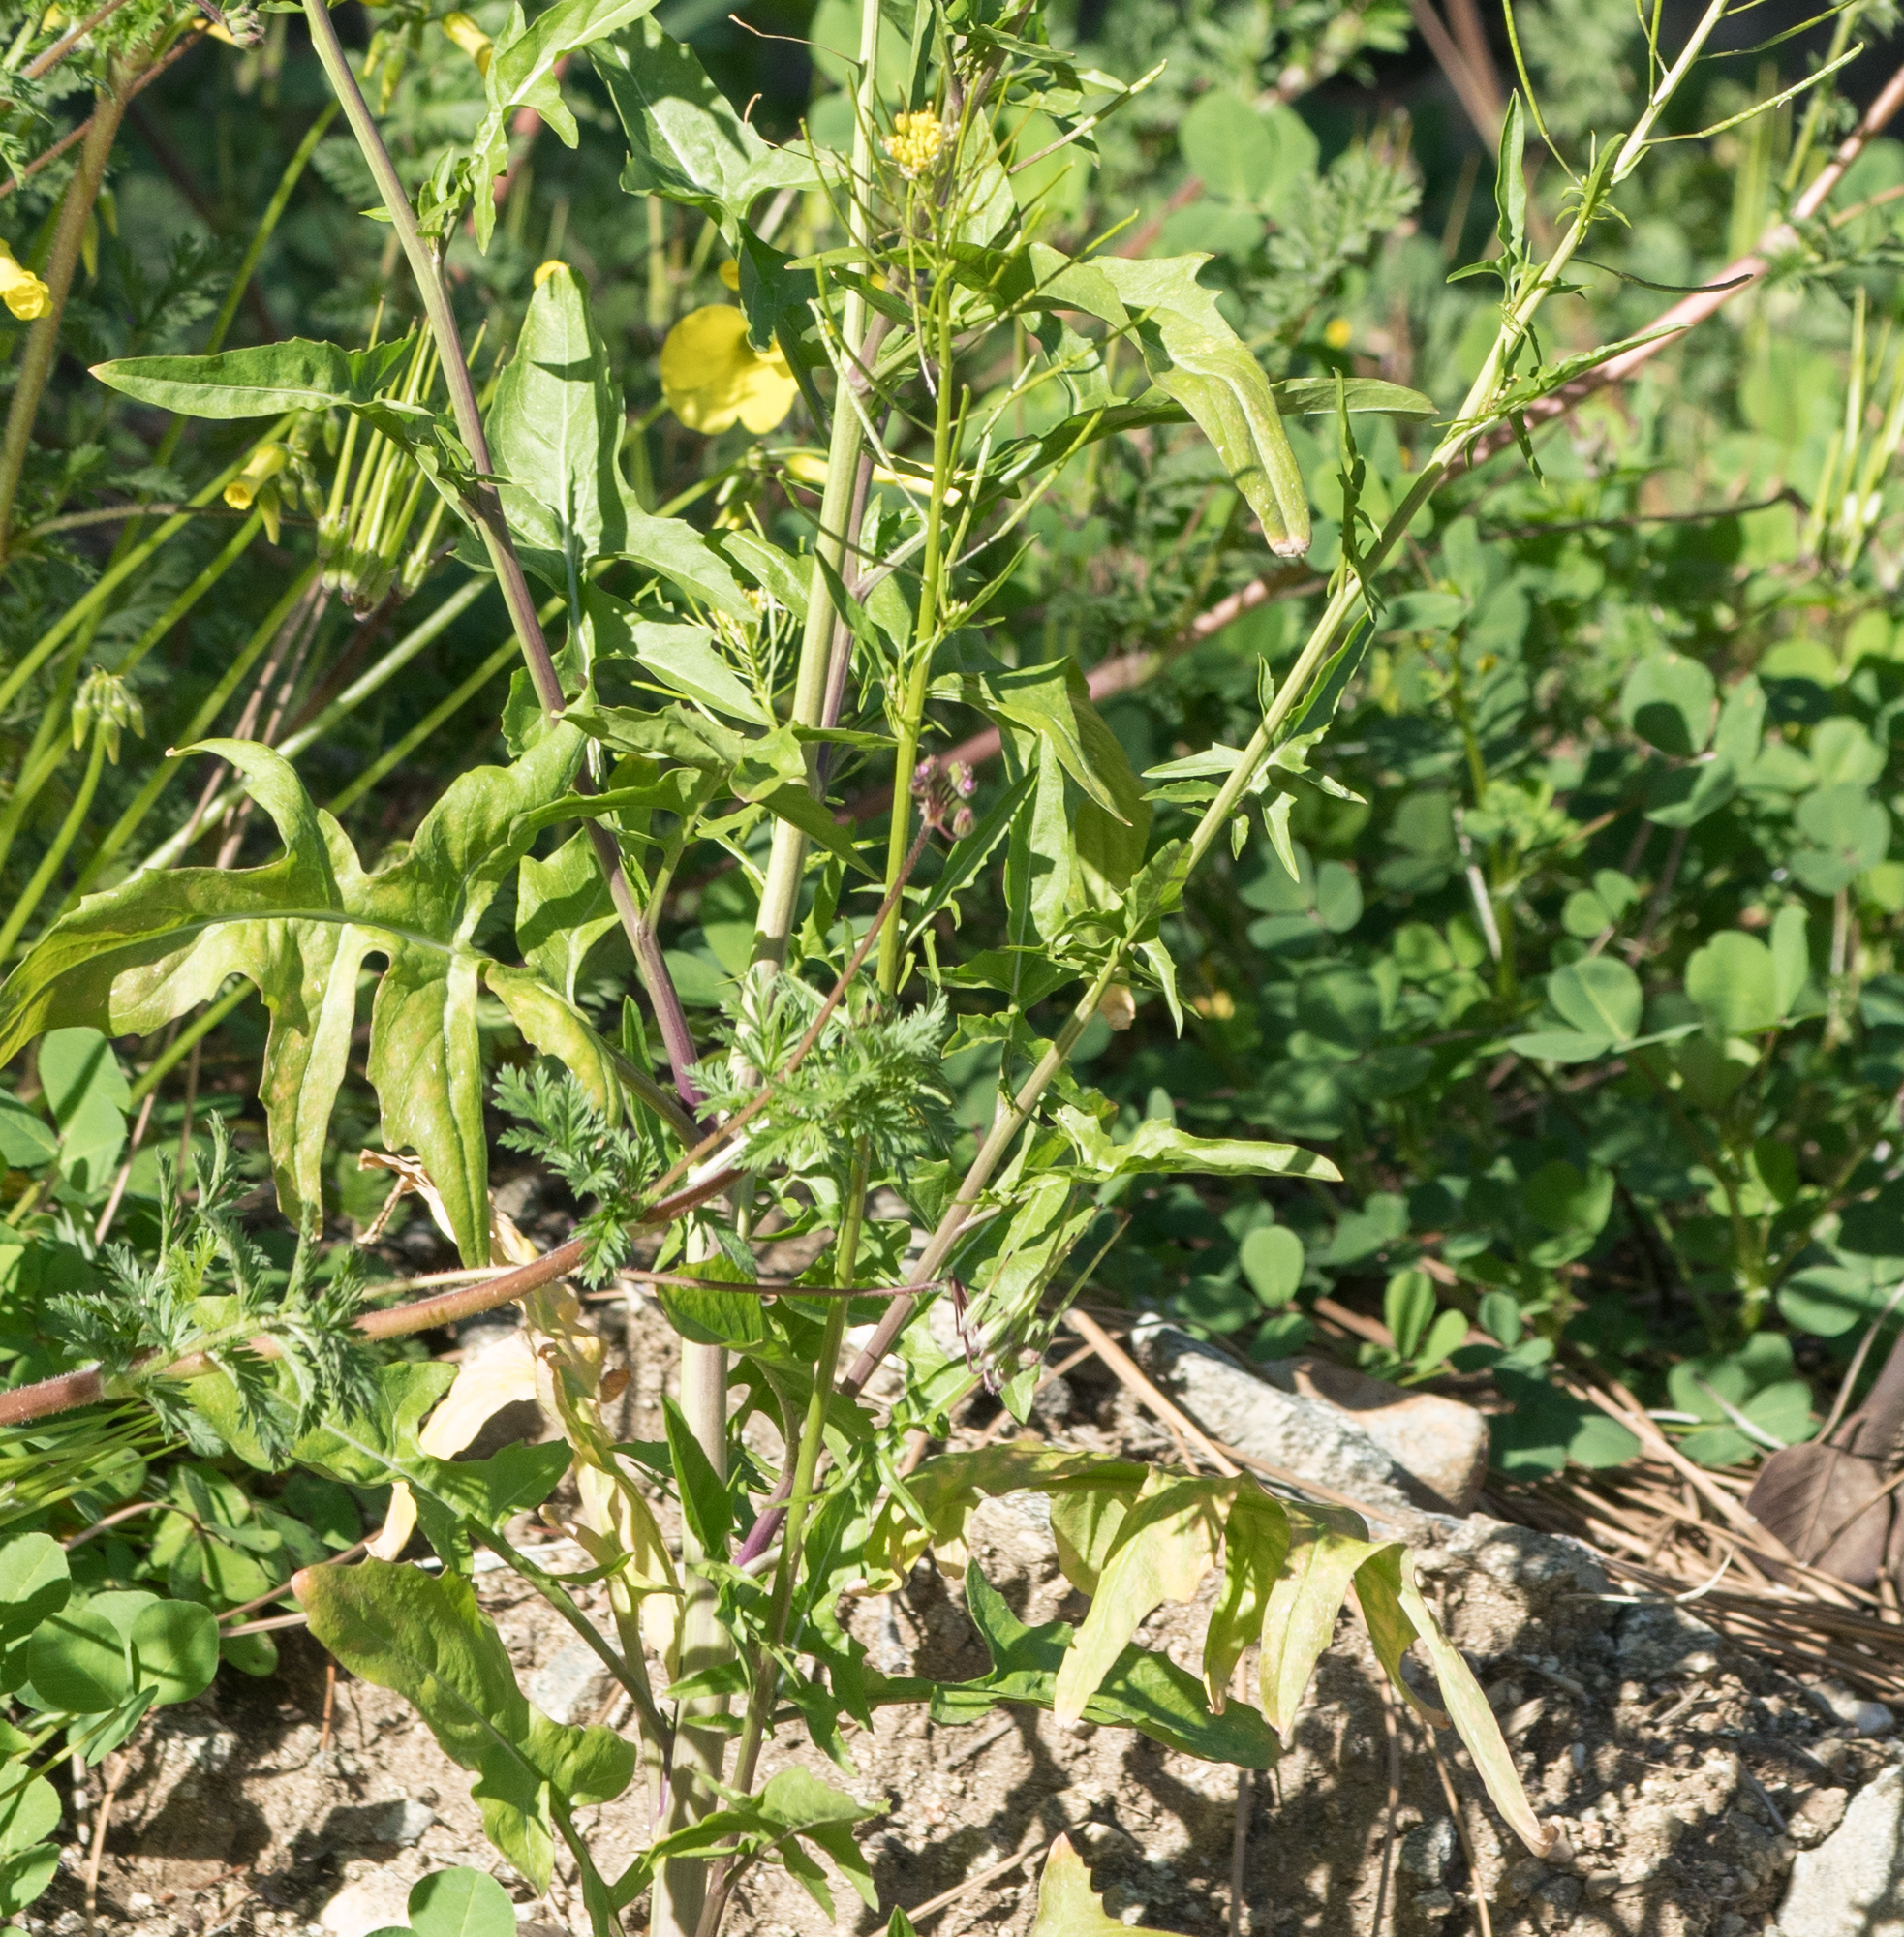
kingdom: Plantae
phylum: Tracheophyta
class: Magnoliopsida
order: Brassicales
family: Brassicaceae
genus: Sisymbrium
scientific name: Sisymbrium irio
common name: London rocket
